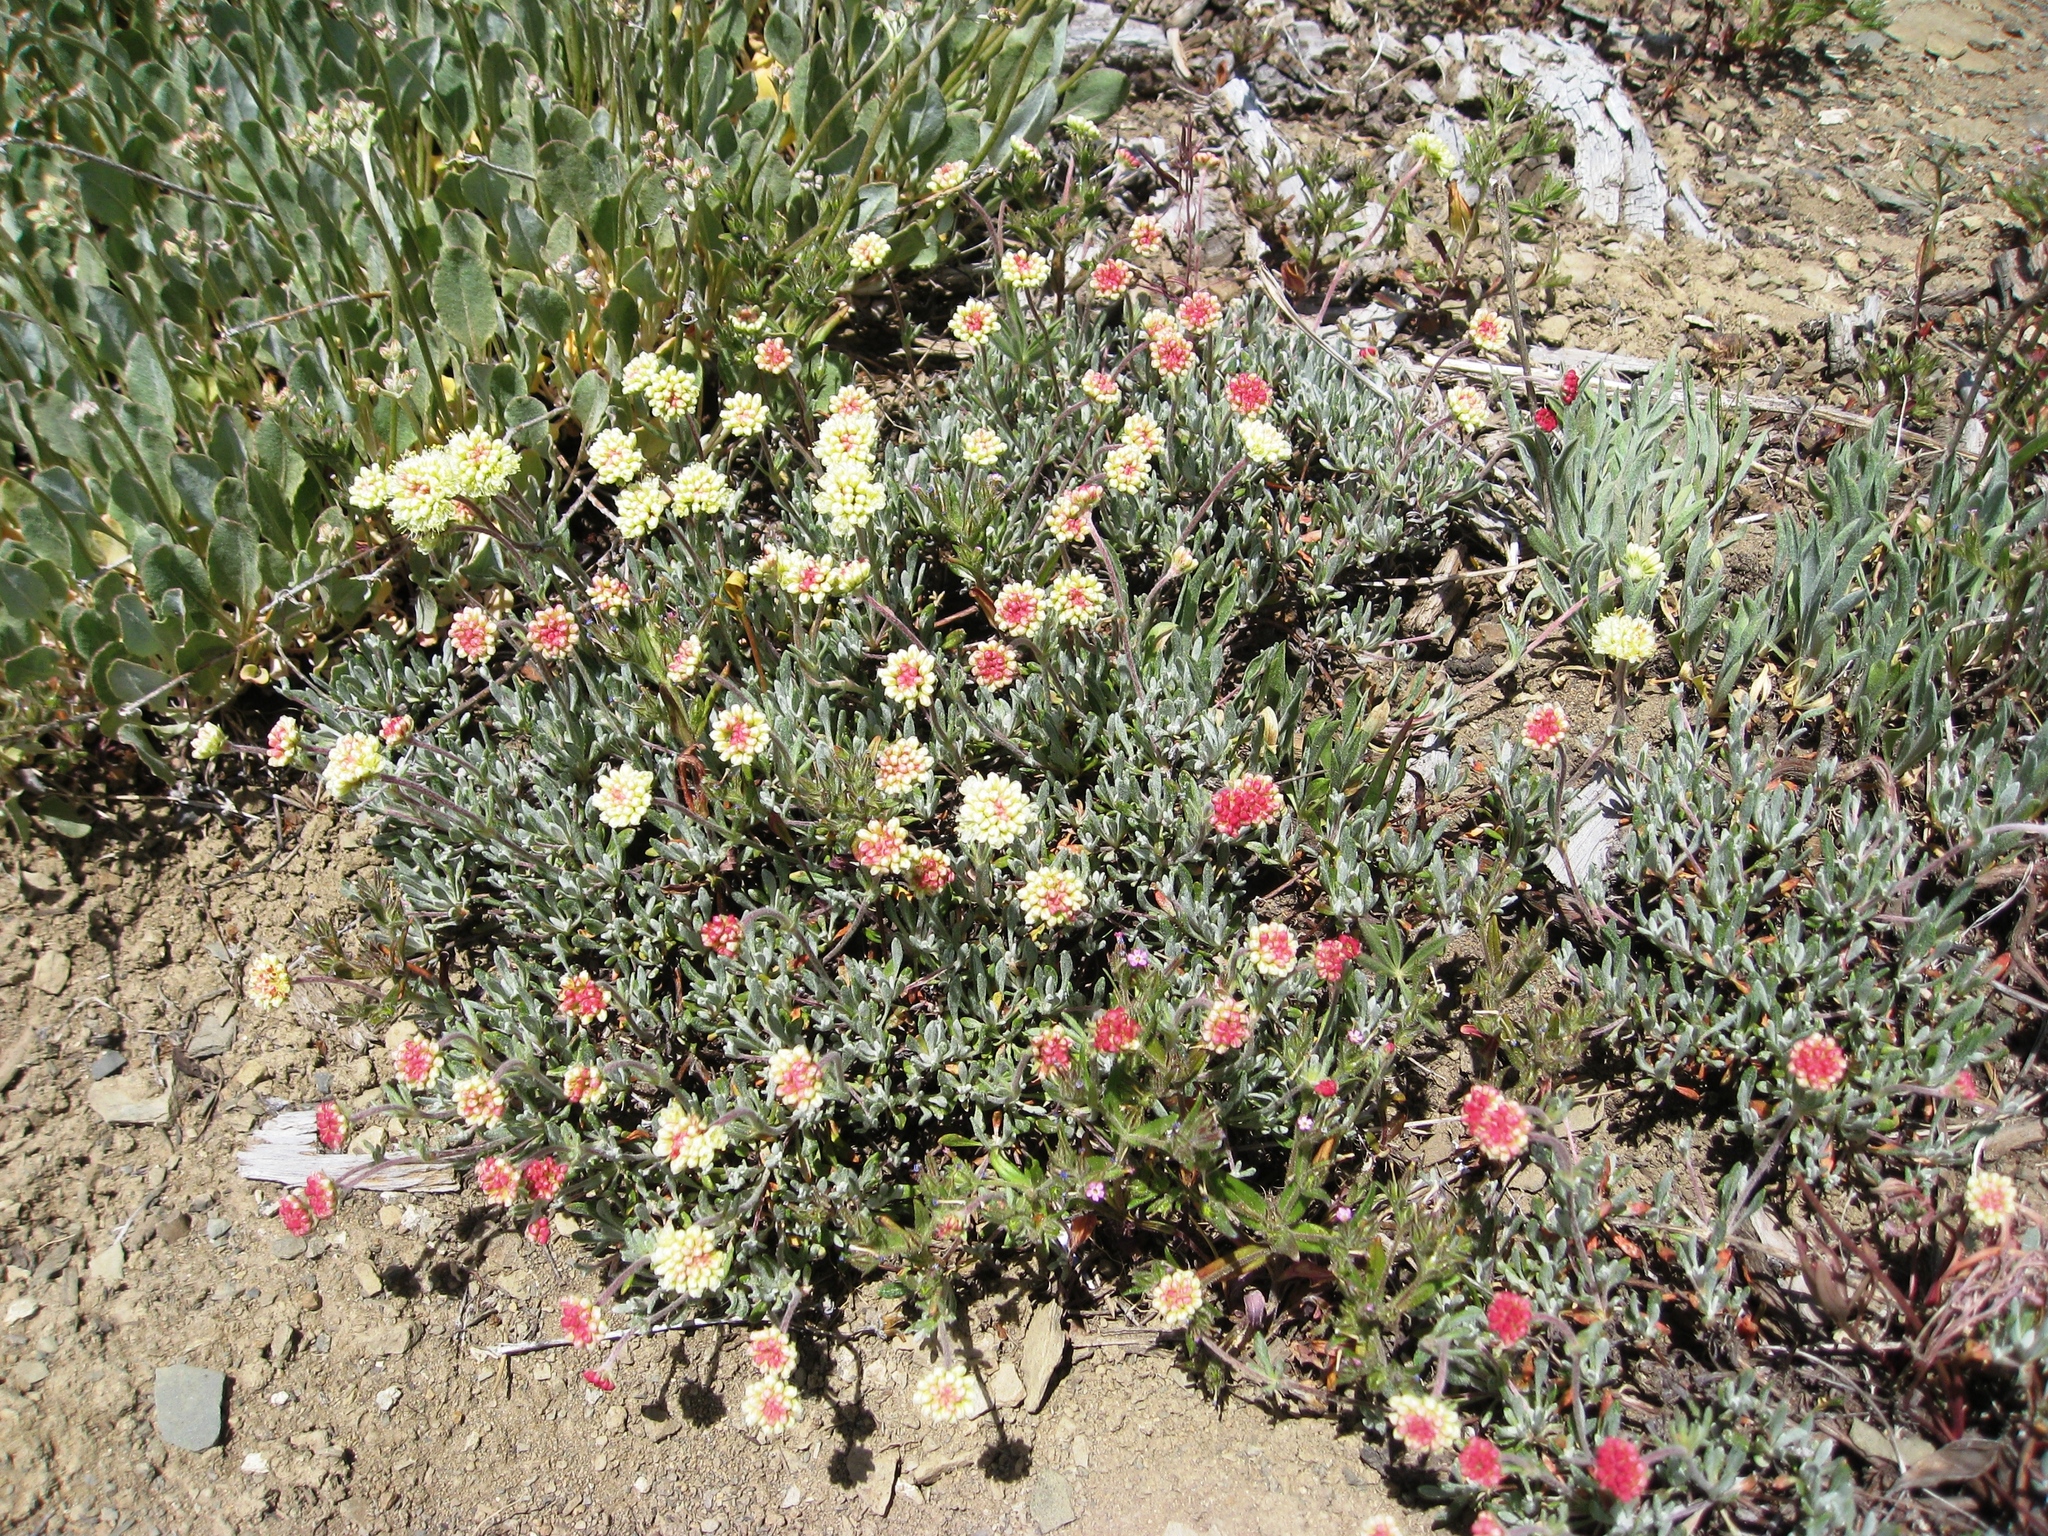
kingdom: Plantae
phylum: Tracheophyta
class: Magnoliopsida
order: Caryophyllales
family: Polygonaceae
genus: Eriogonum
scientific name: Eriogonum douglasii
